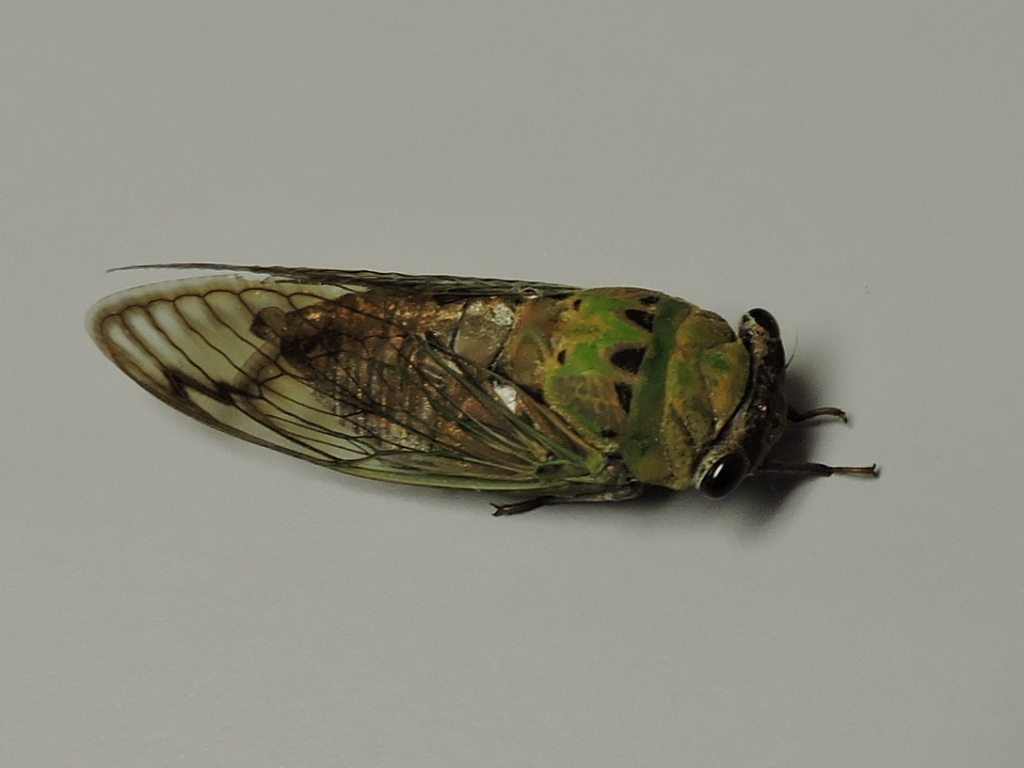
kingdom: Animalia
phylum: Arthropoda
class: Insecta
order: Hemiptera
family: Cicadidae
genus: Neotibicen
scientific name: Neotibicen superbus
